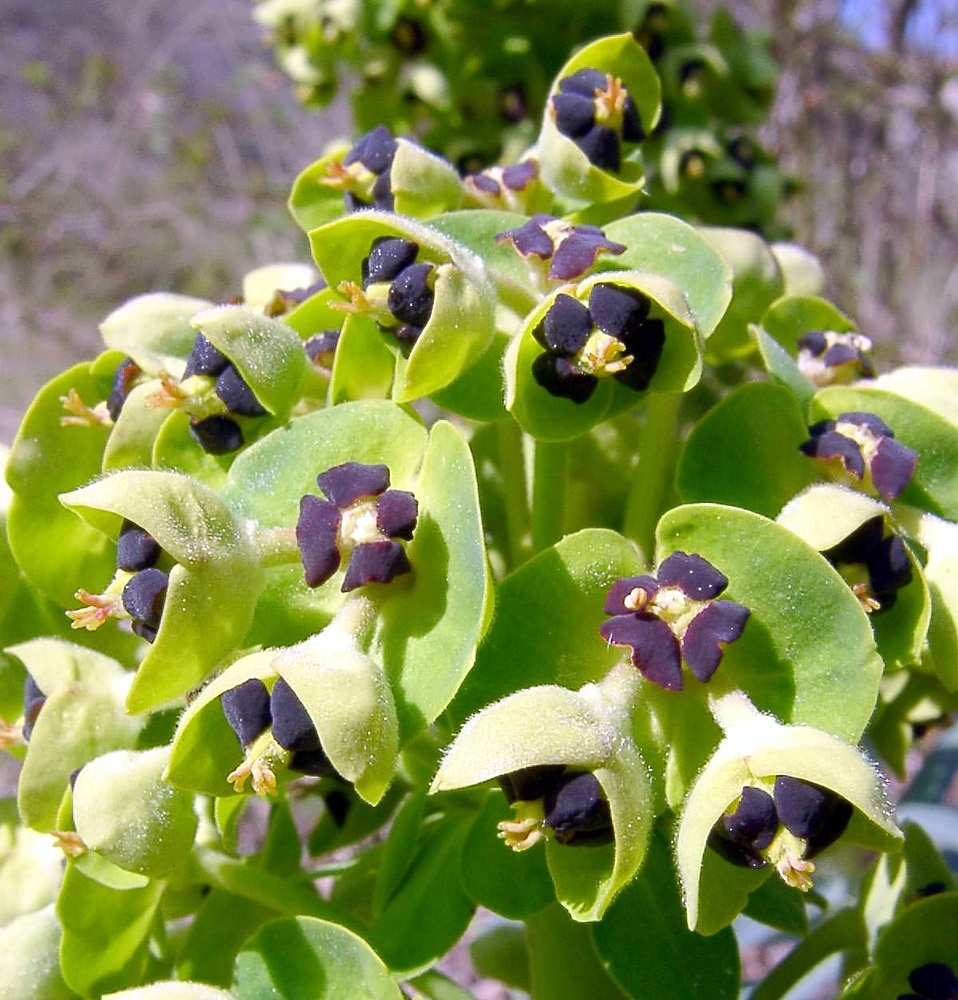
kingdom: Plantae
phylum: Tracheophyta
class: Magnoliopsida
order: Malpighiales
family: Euphorbiaceae
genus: Euphorbia
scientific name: Euphorbia characias
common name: Mediterranean spurge
